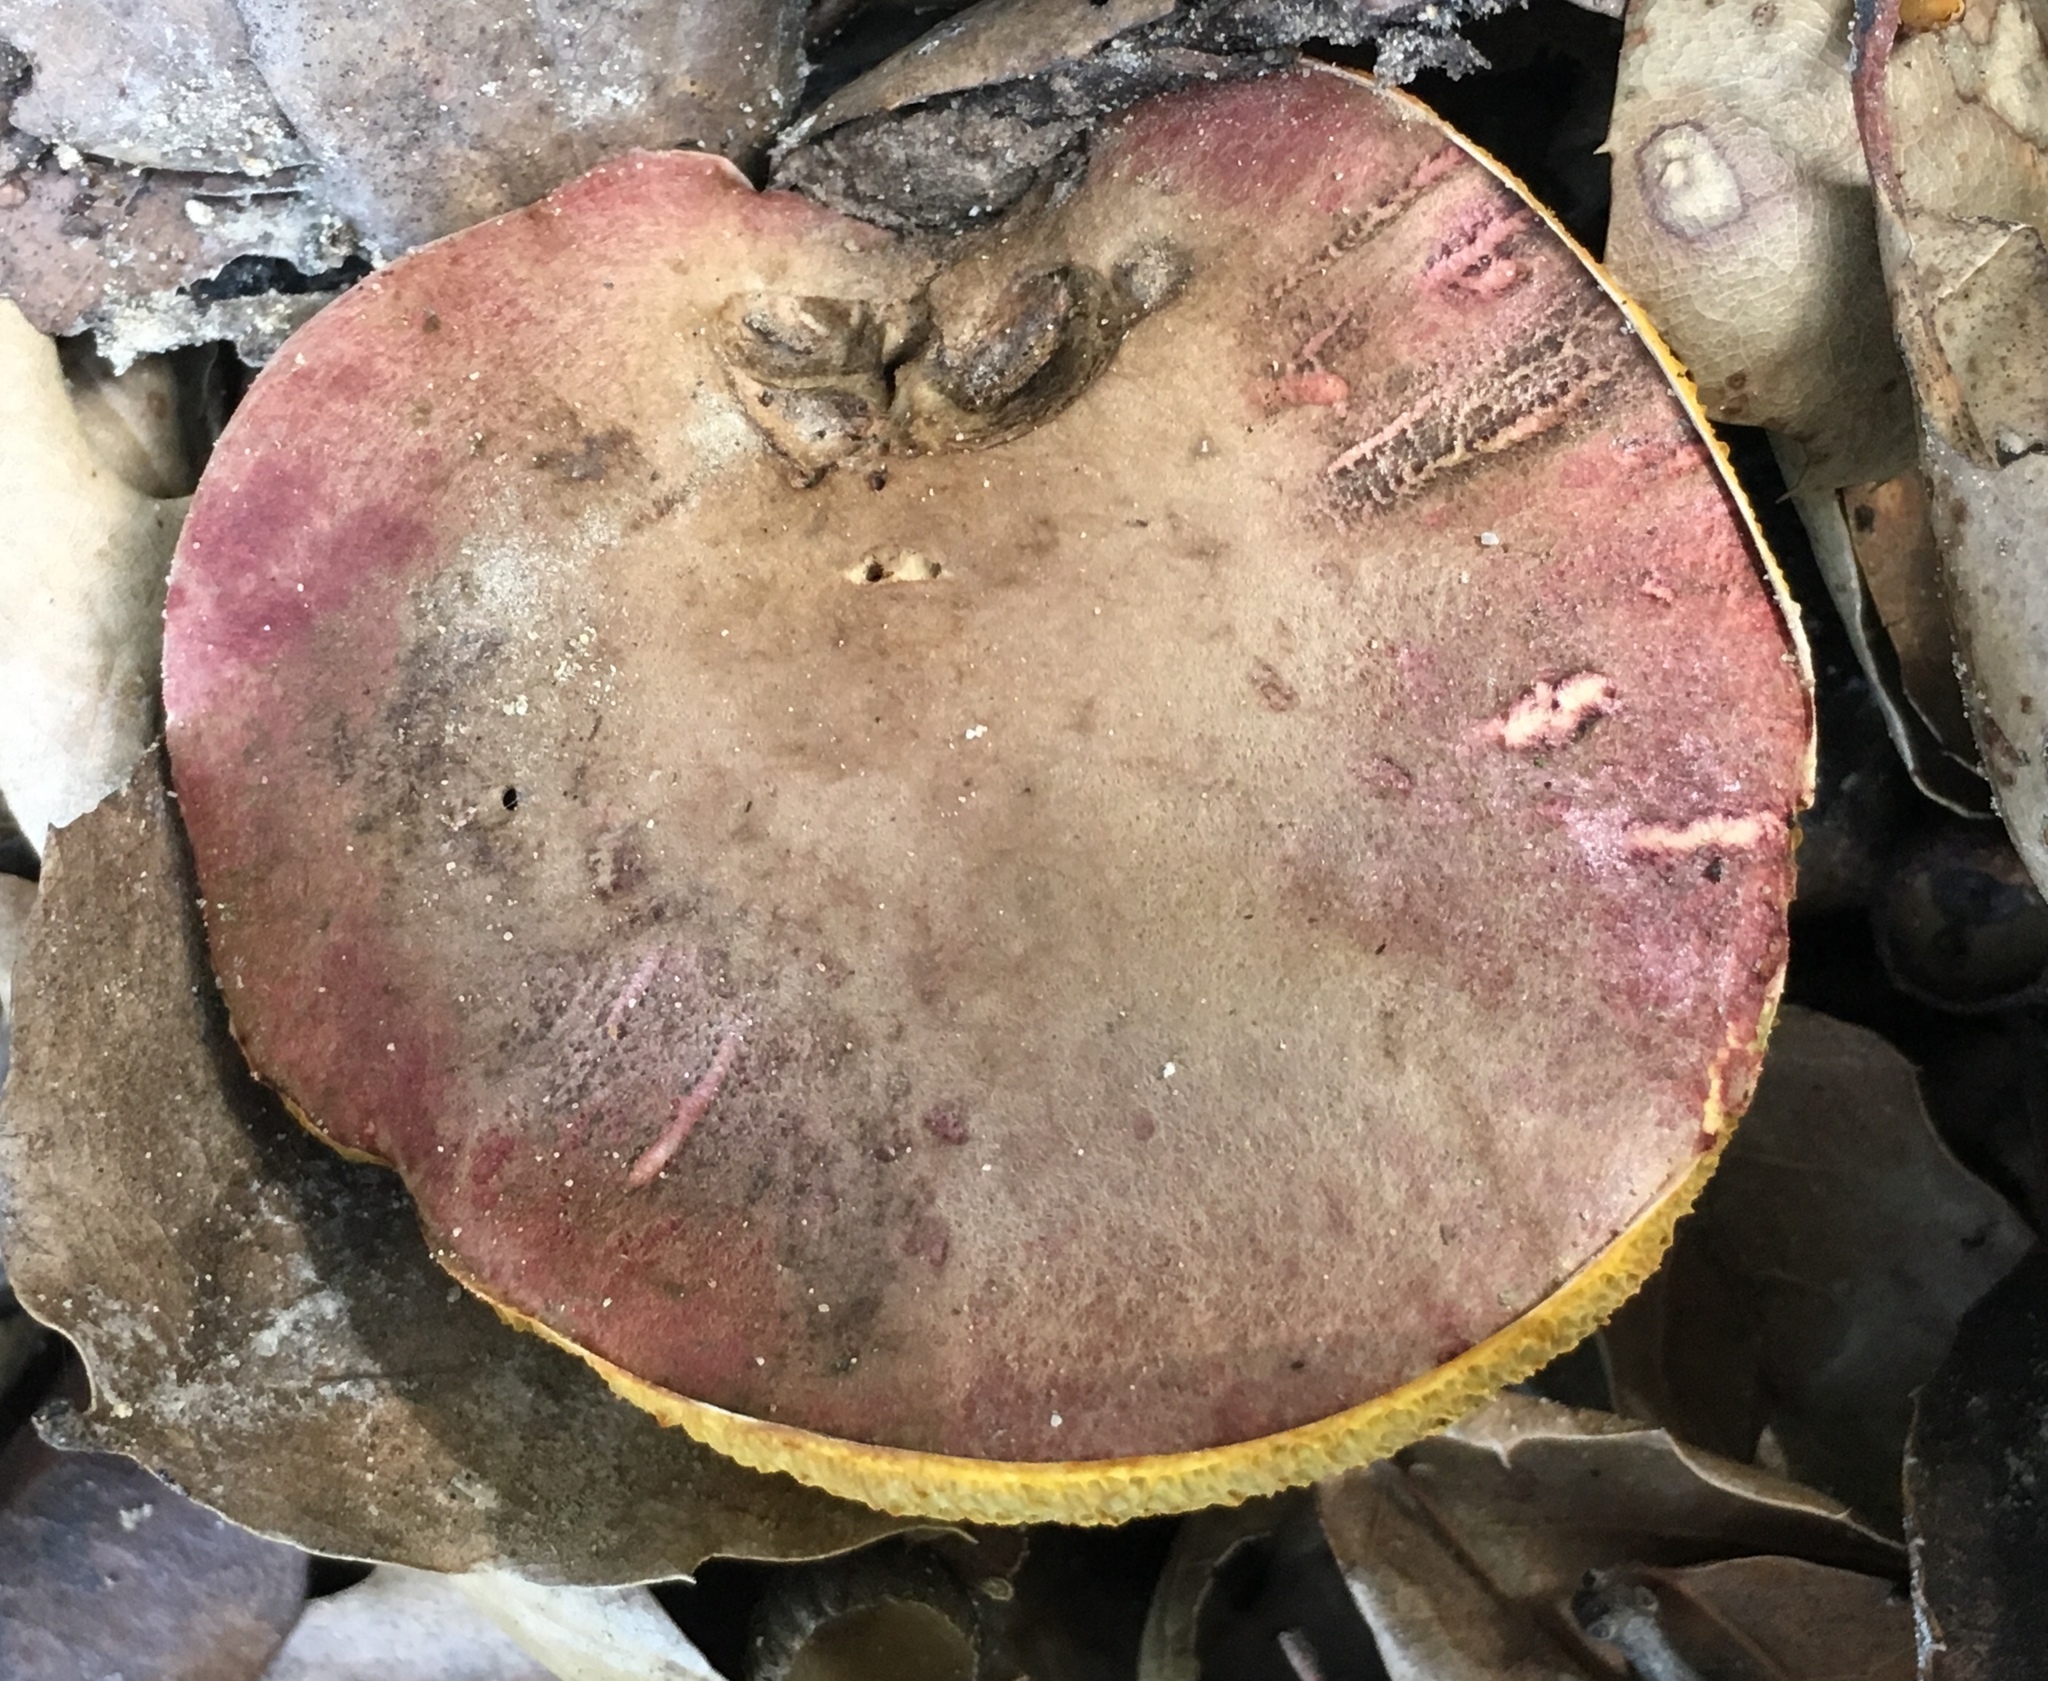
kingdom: Fungi
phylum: Basidiomycota
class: Agaricomycetes
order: Boletales
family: Boletaceae
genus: Xerocomellus
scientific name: Xerocomellus dryophilus
